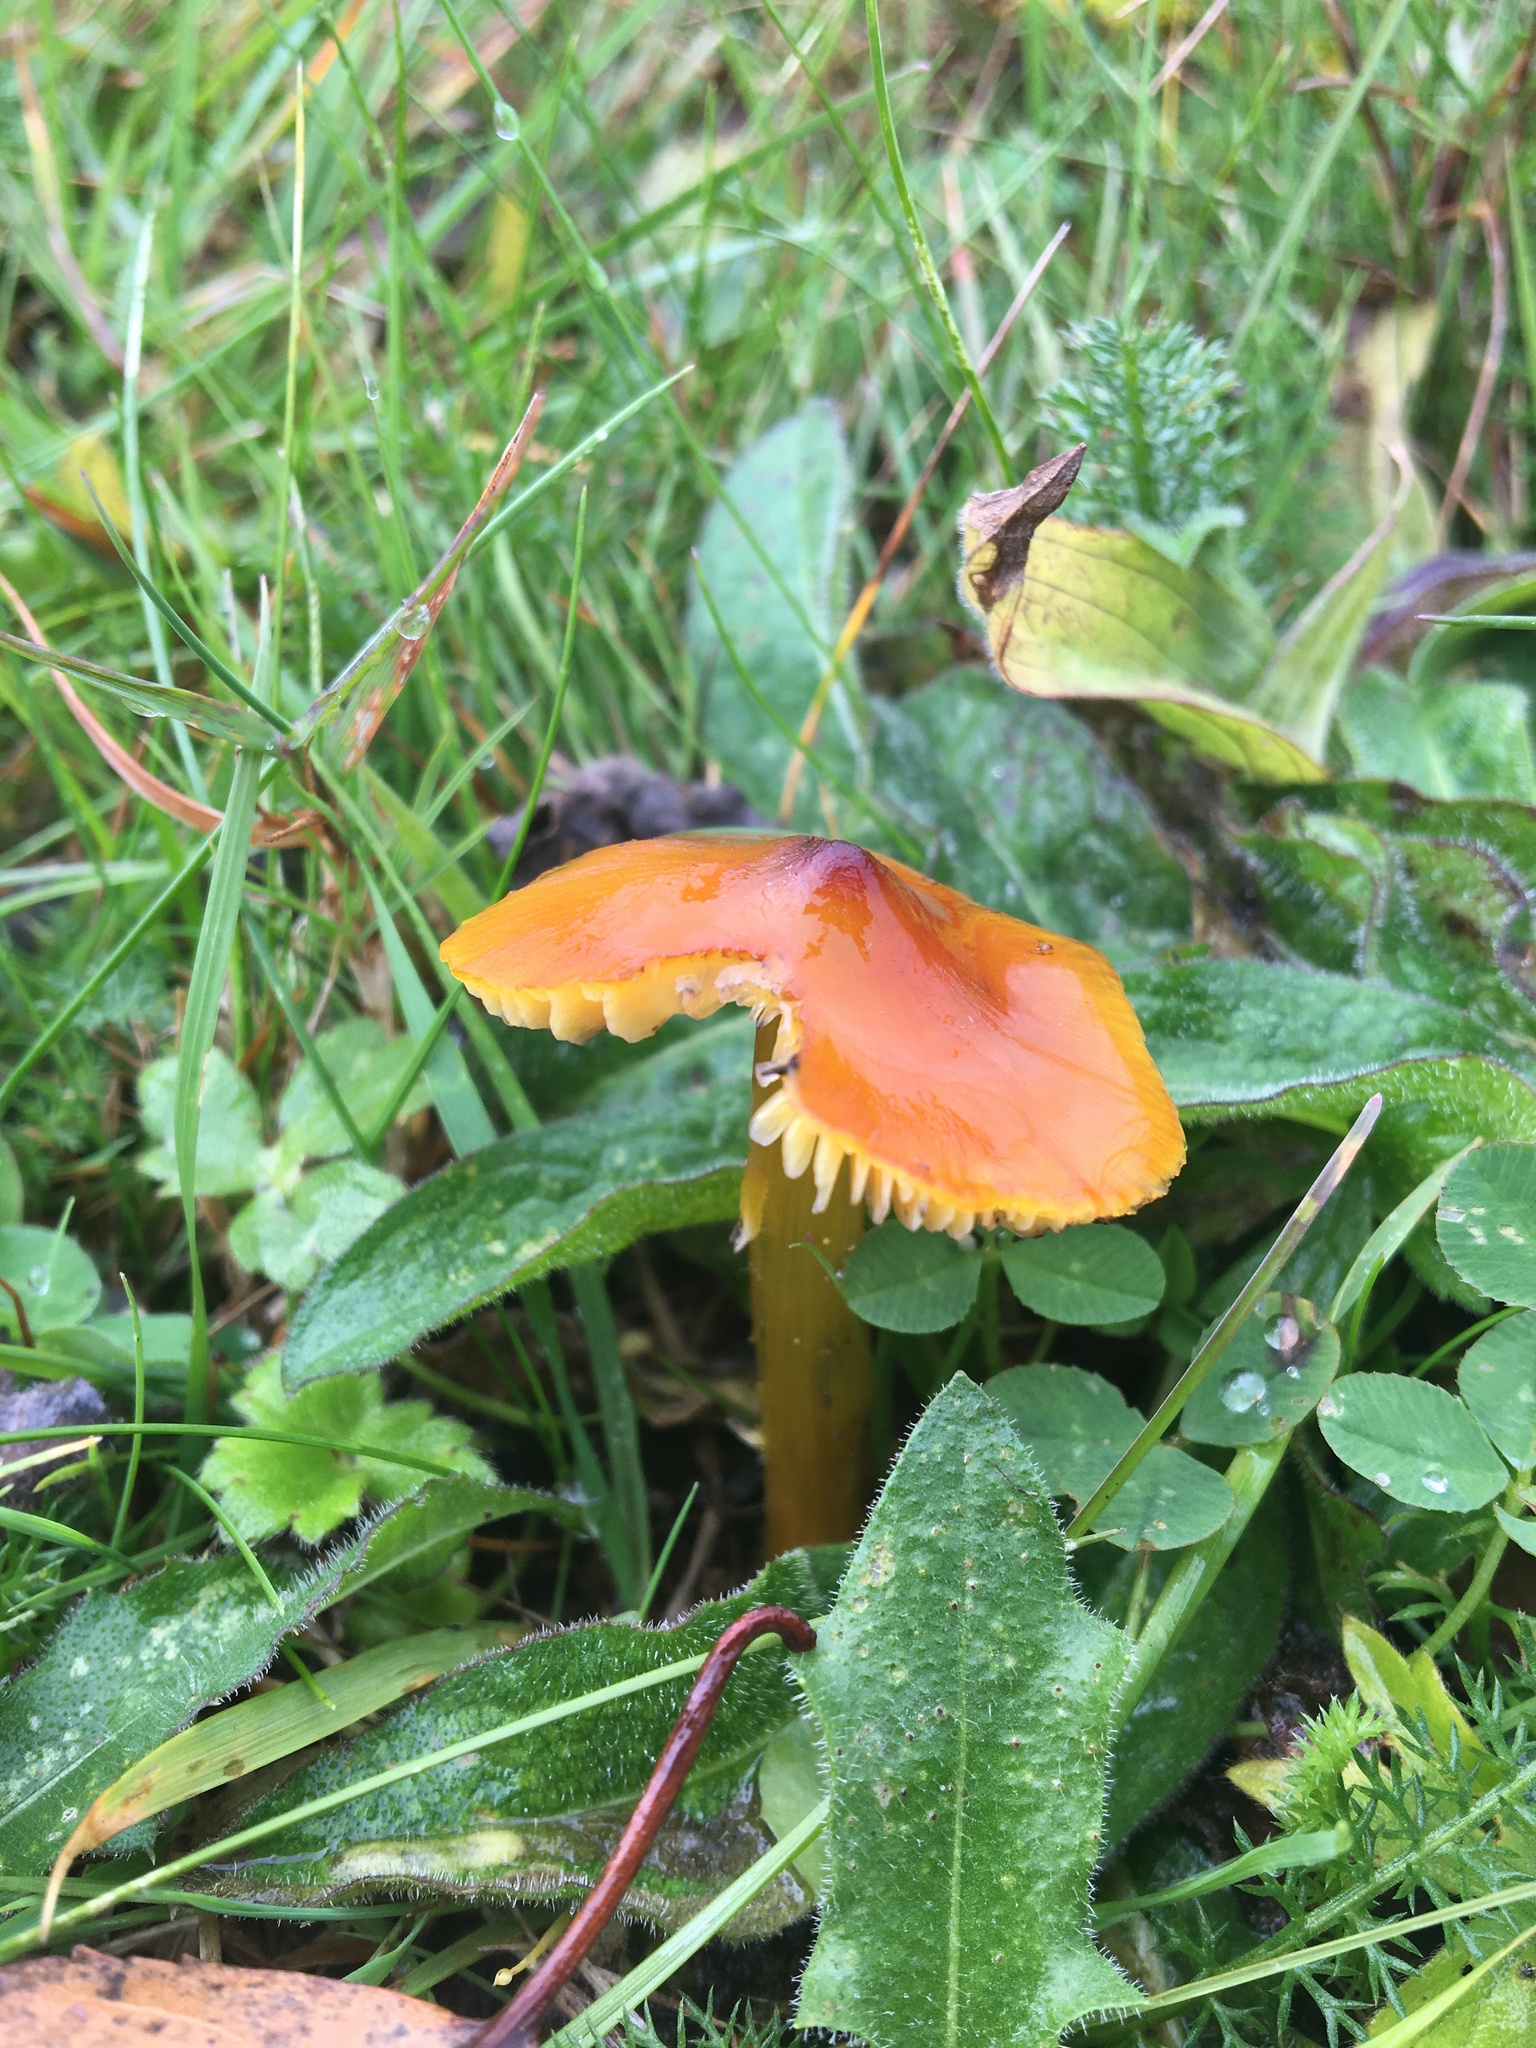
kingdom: Fungi
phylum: Basidiomycota
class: Agaricomycetes
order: Agaricales
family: Hygrophoraceae
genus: Hygrocybe
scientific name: Hygrocybe conica
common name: Blackening wax-cap
